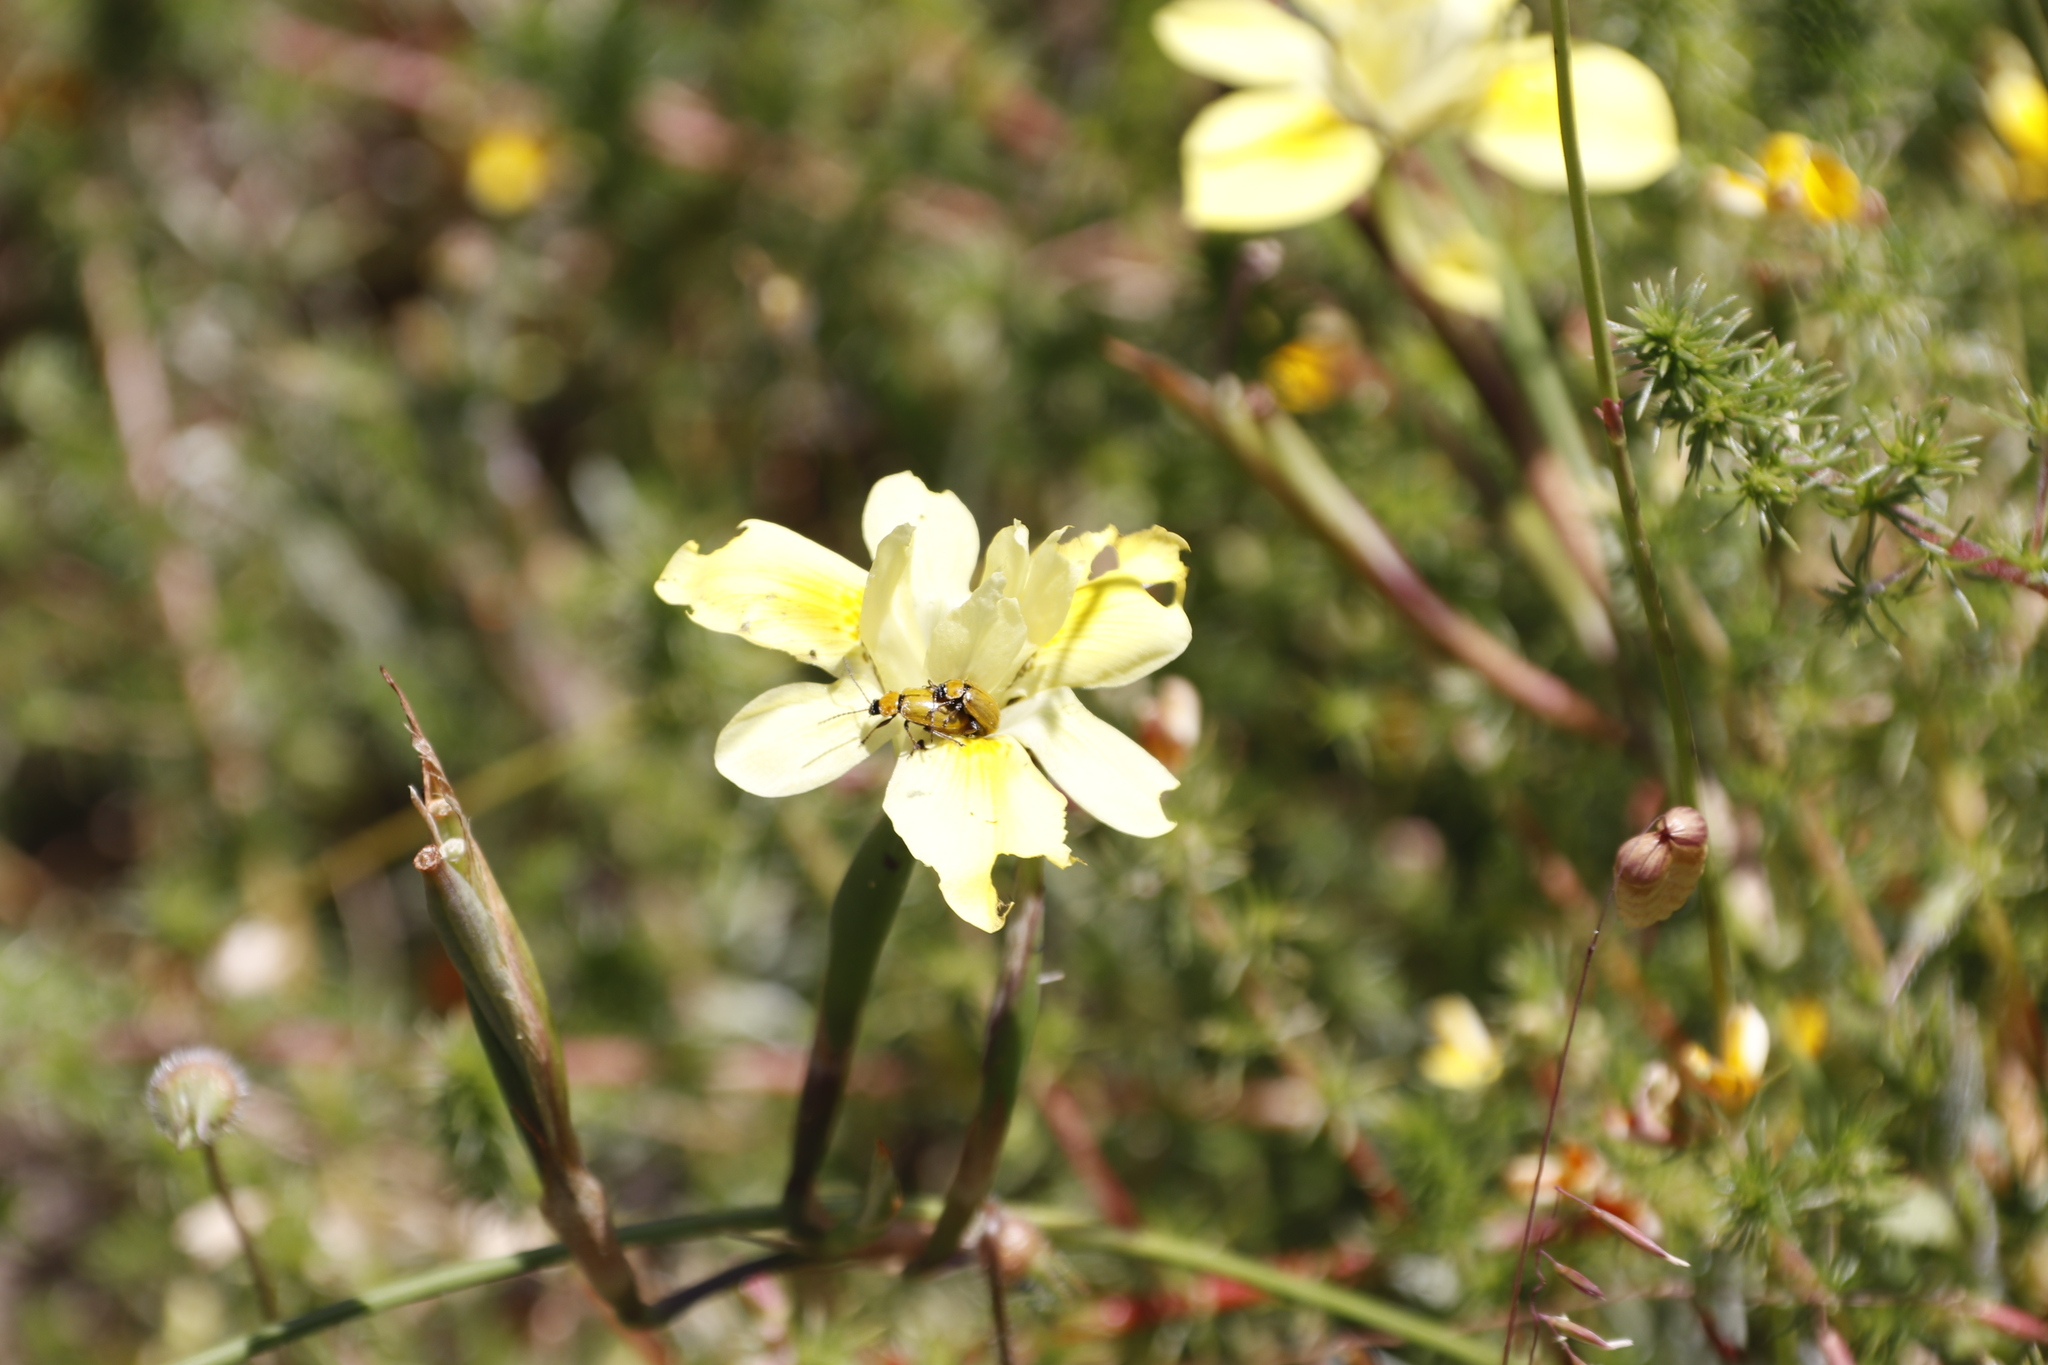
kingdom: Plantae
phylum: Tracheophyta
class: Liliopsida
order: Asparagales
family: Iridaceae
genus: Moraea
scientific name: Moraea fugax
